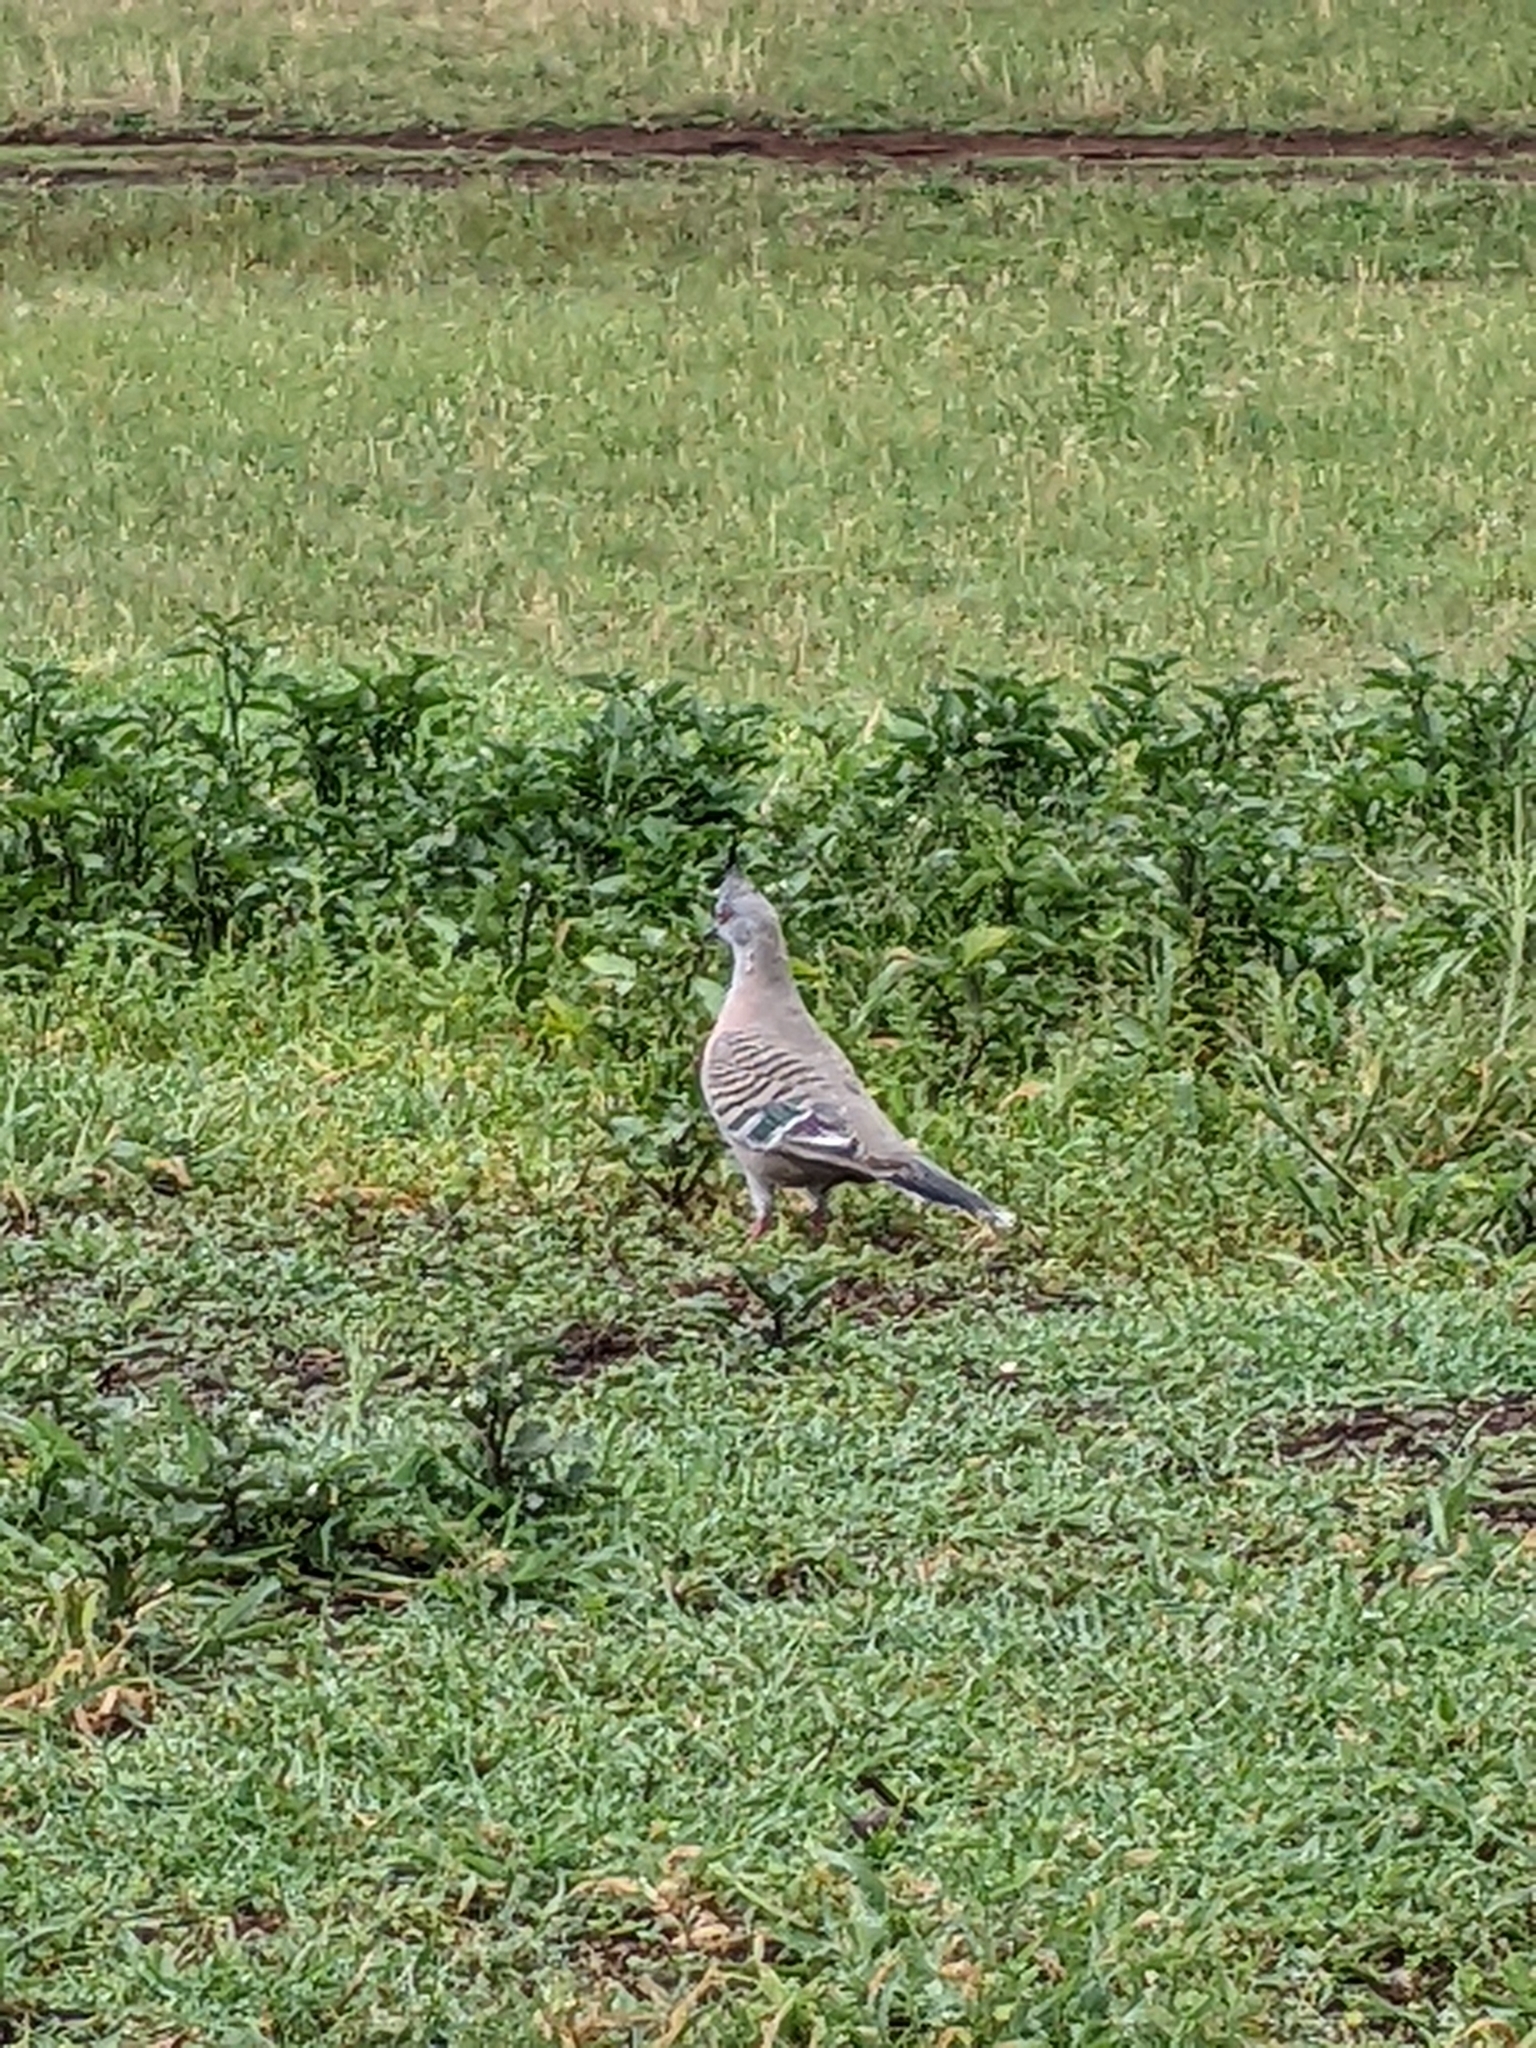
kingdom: Animalia
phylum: Chordata
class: Aves
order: Columbiformes
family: Columbidae
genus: Ocyphaps
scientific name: Ocyphaps lophotes
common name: Crested pigeon
